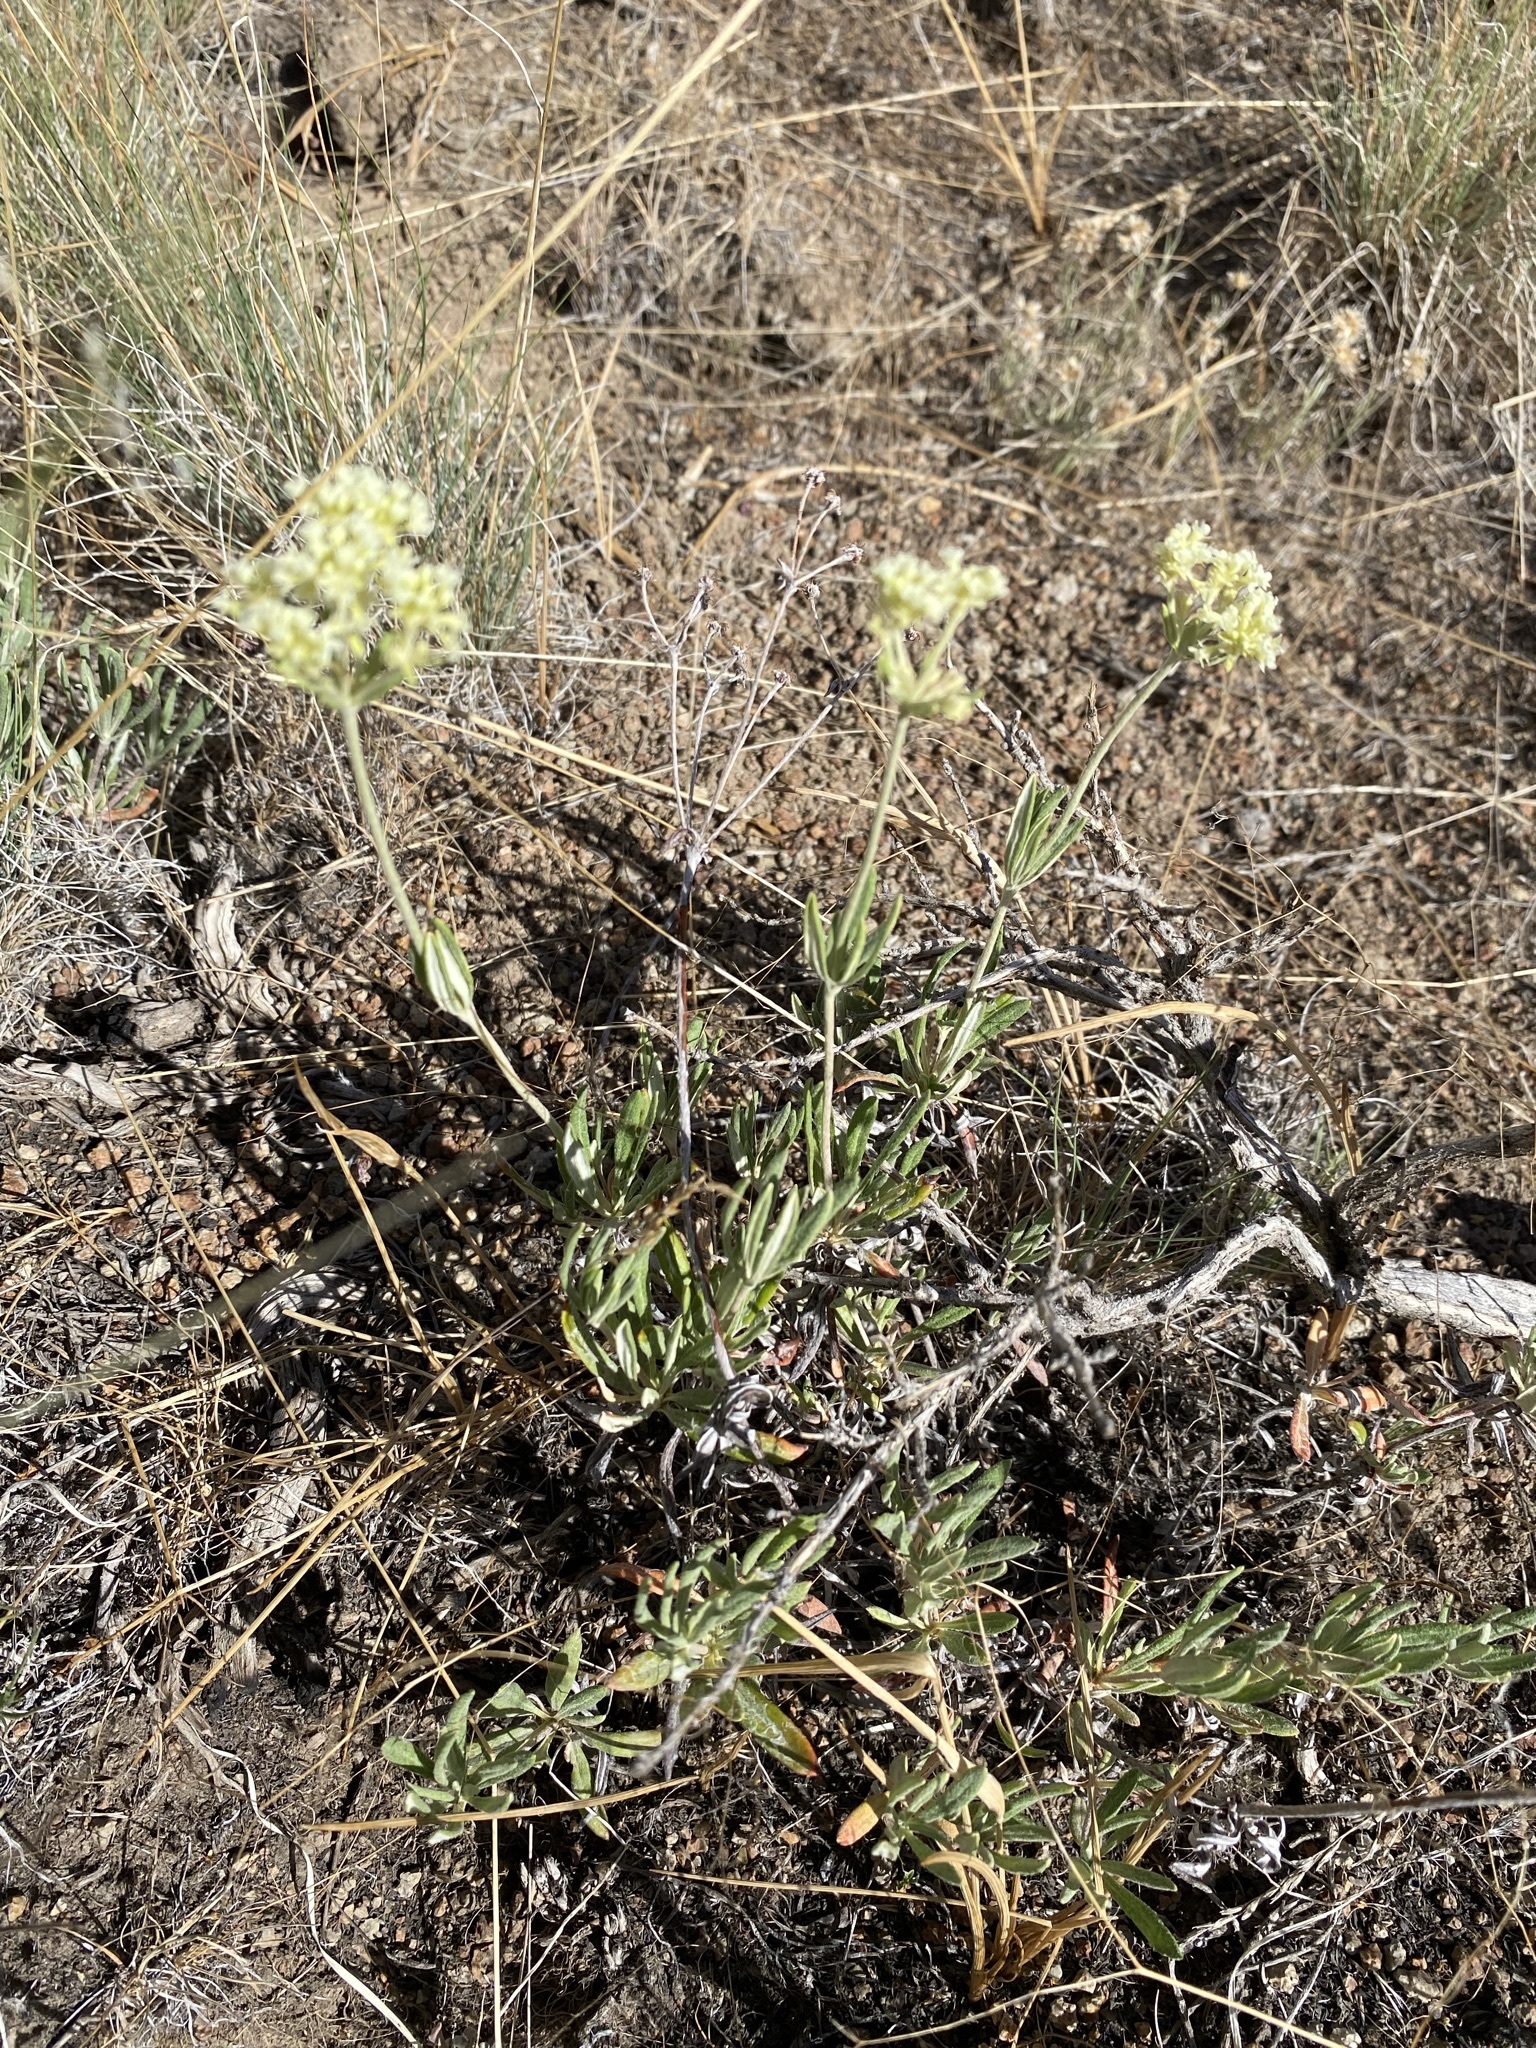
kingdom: Plantae
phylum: Tracheophyta
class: Magnoliopsida
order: Caryophyllales
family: Polygonaceae
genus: Eriogonum
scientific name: Eriogonum heracleoides
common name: Wyeth's buckwheat
